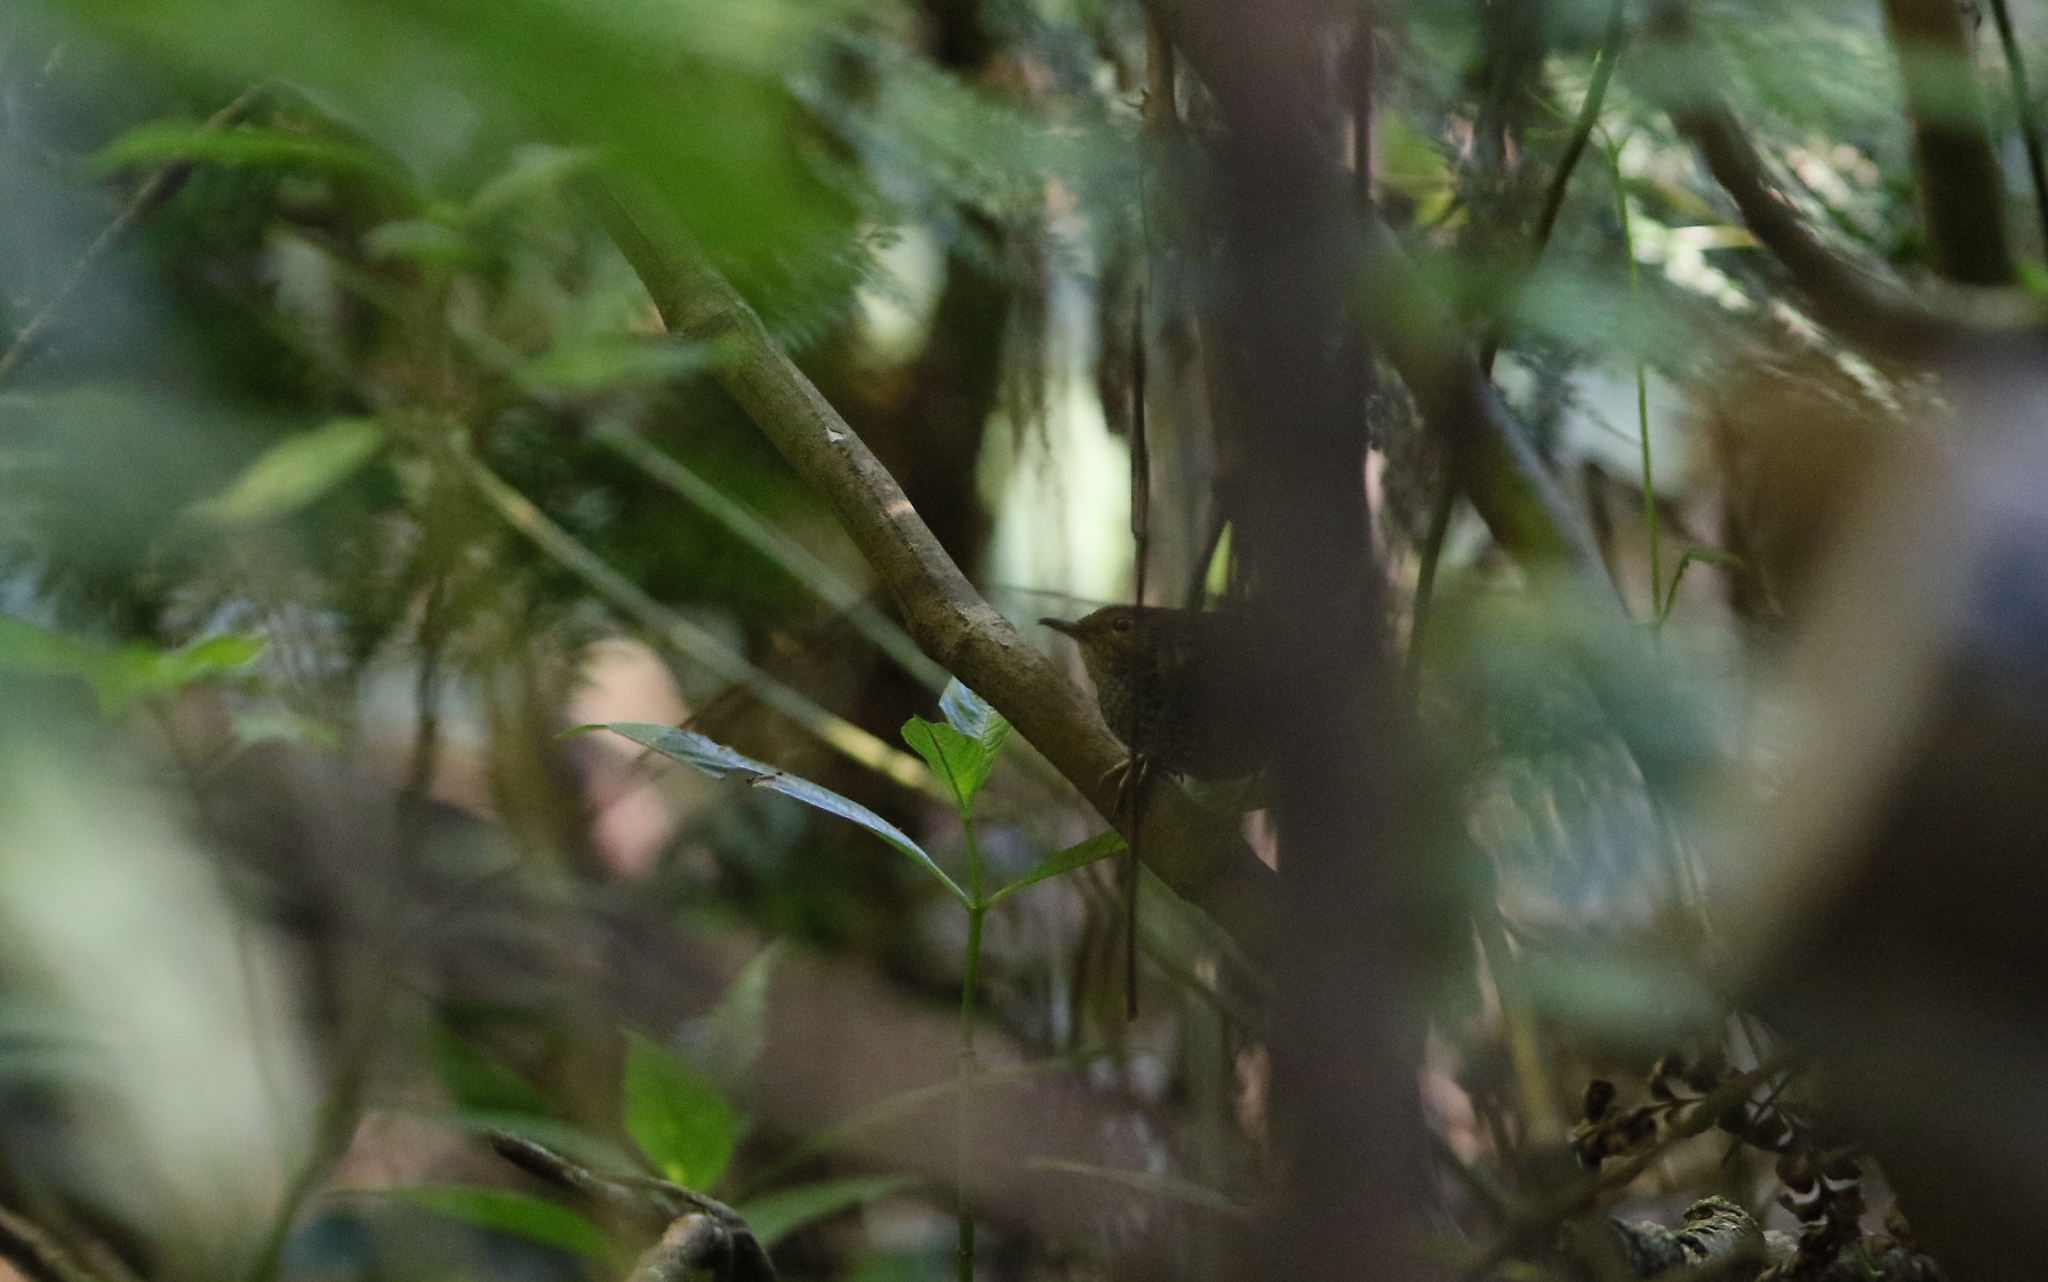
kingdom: Animalia
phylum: Chordata
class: Aves
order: Passeriformes
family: Pnoepygidae
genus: Pnoepyga
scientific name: Pnoepyga pusilla
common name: Pygmy wren-babbler
